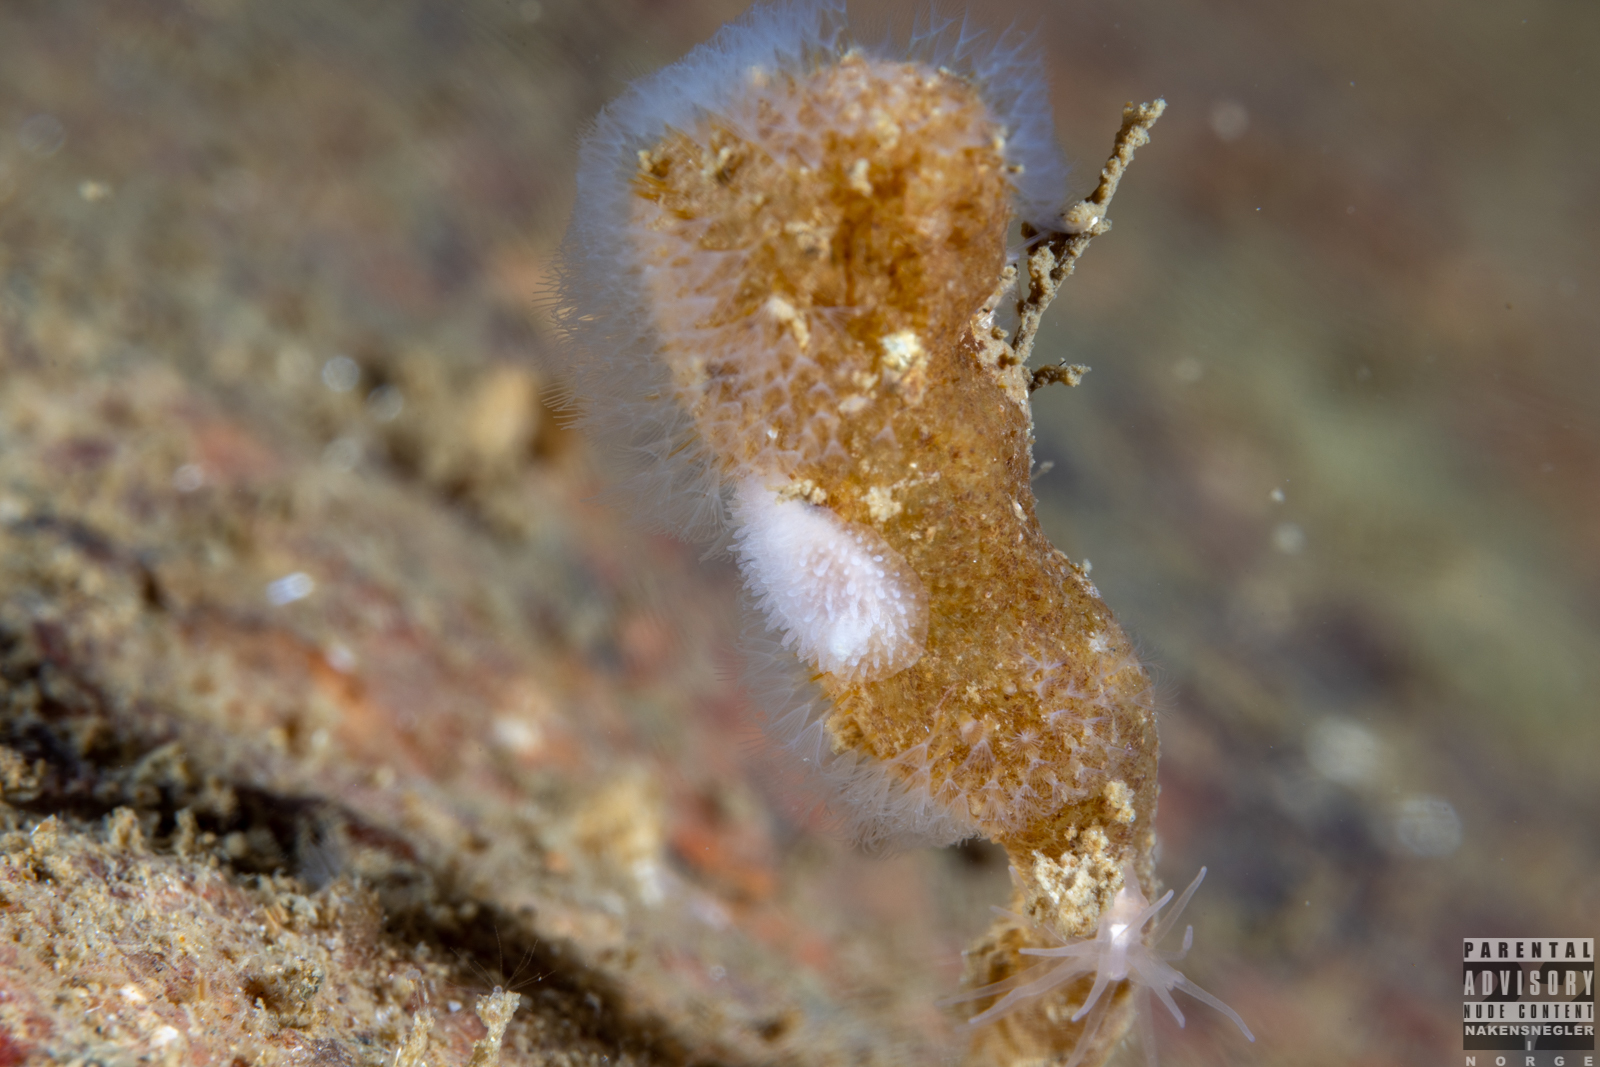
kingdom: Animalia
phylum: Mollusca
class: Gastropoda
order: Nudibranchia
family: Onchidorididae
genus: Acanthodoris
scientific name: Acanthodoris pilosa
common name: Hairy spiny doris
